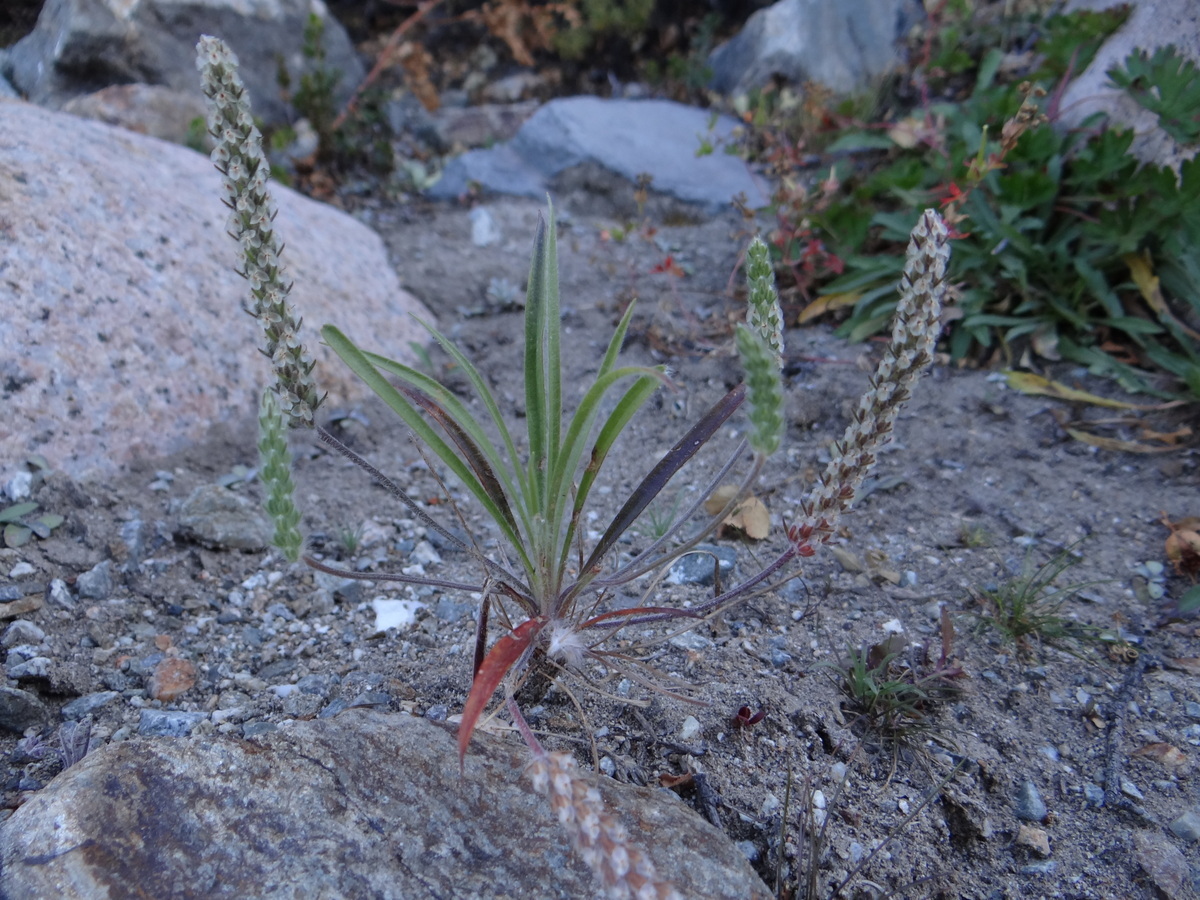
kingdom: Plantae
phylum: Tracheophyta
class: Magnoliopsida
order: Lamiales
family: Plantaginaceae
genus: Plantago
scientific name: Plantago patagonica
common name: Patagonia indian-wheat
